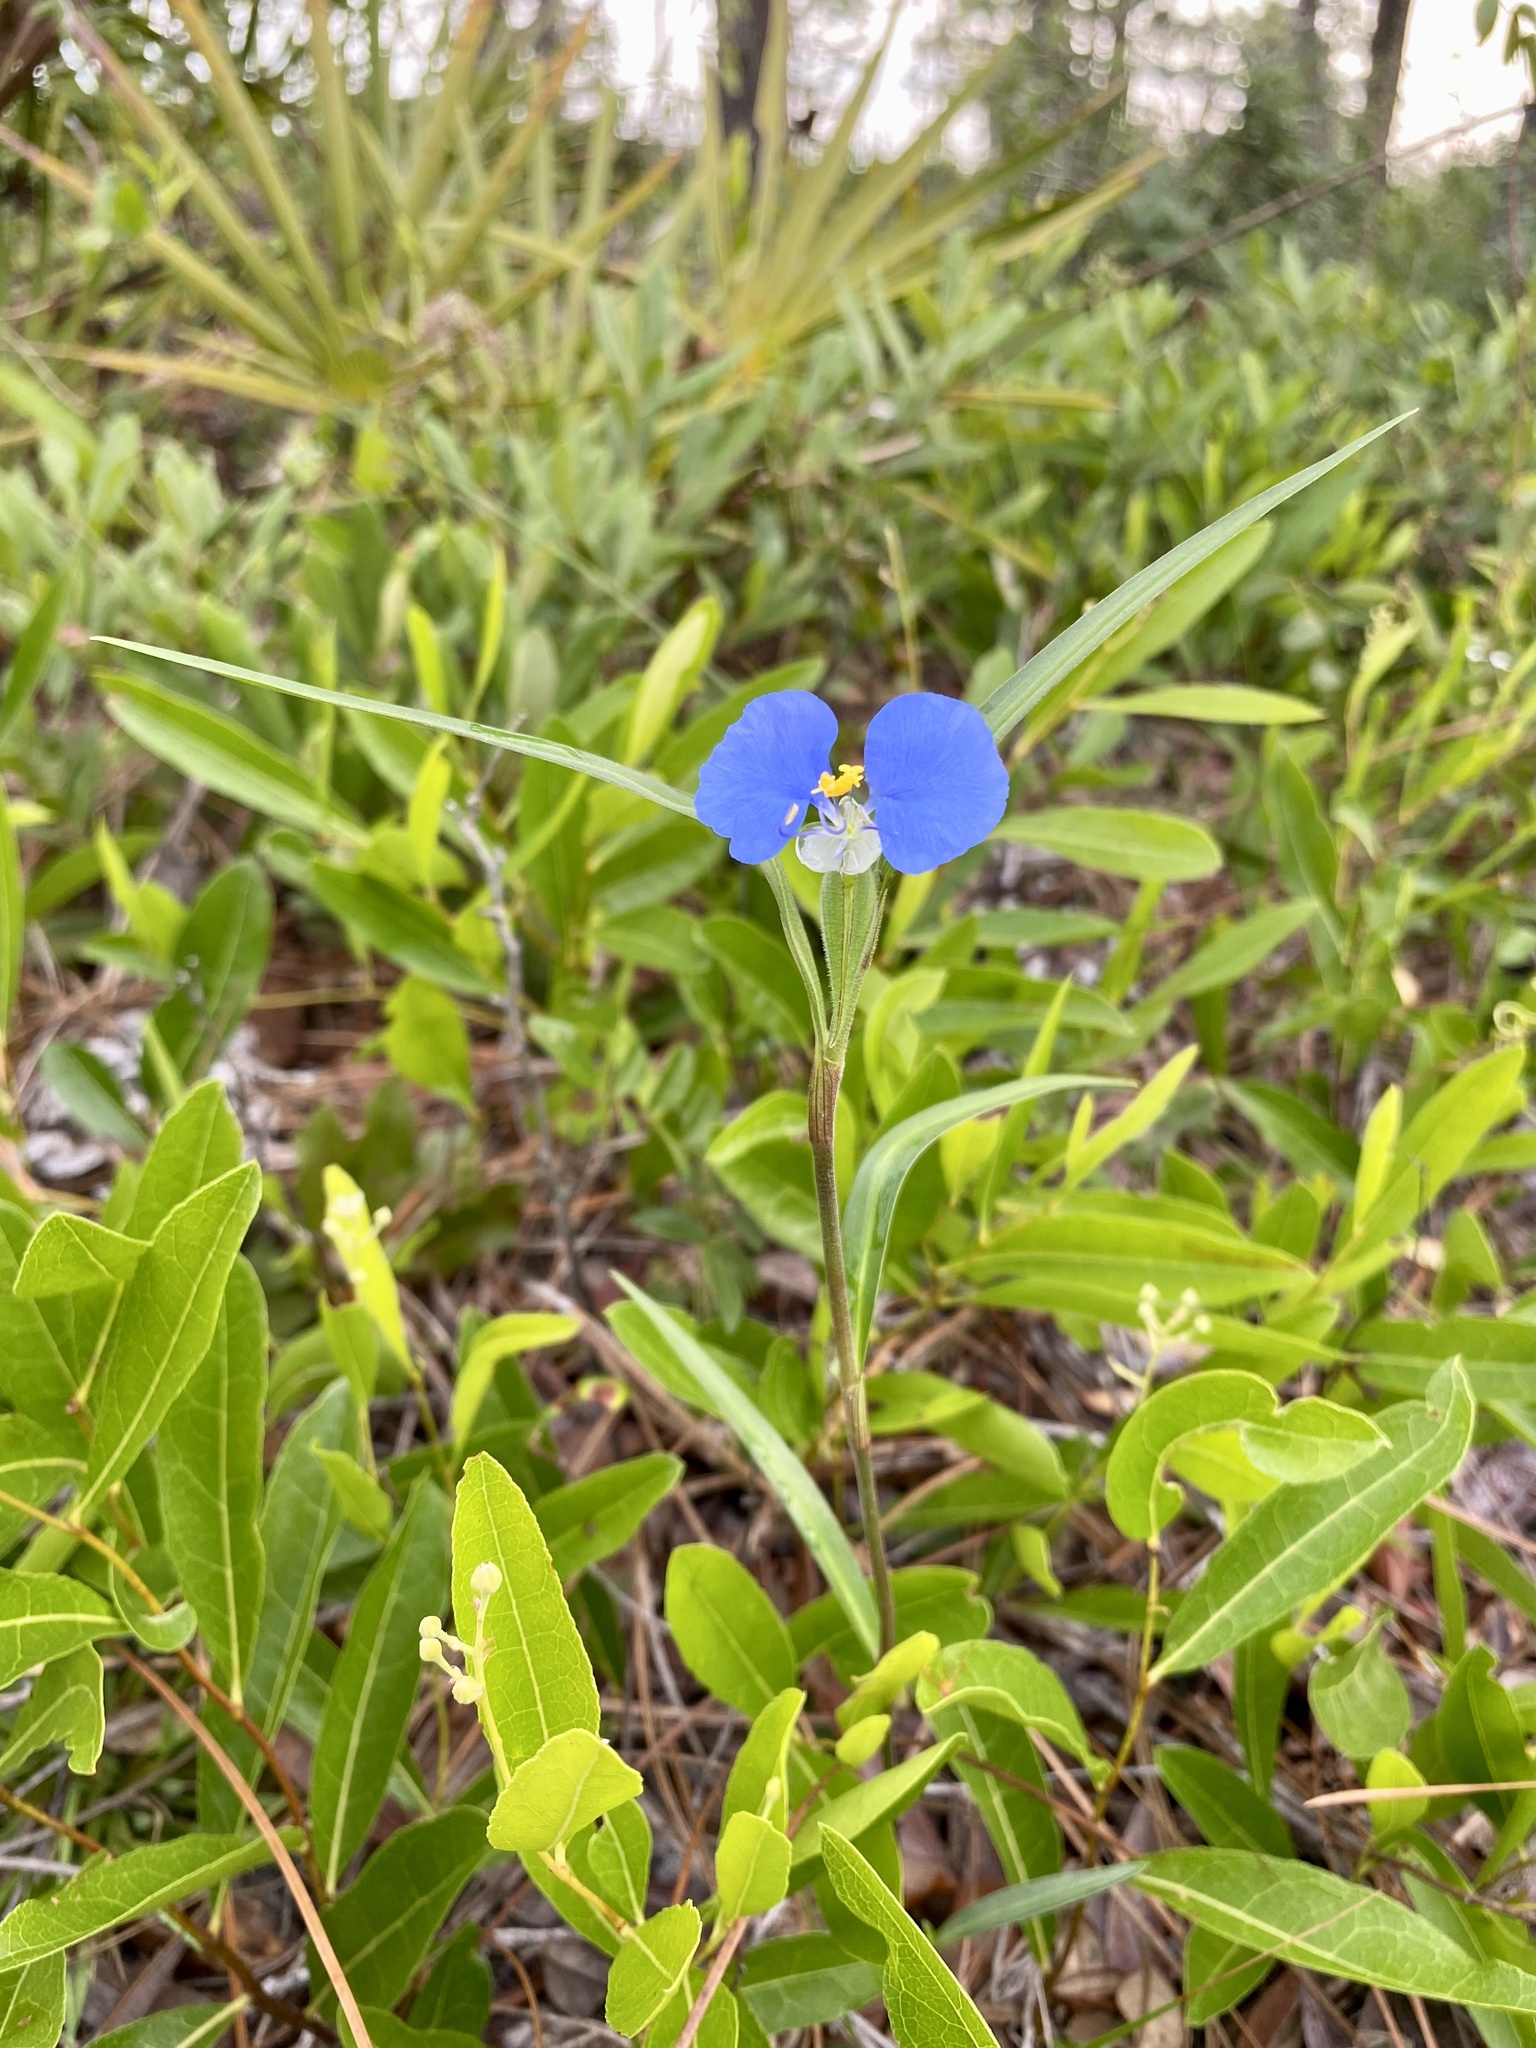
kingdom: Plantae
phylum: Tracheophyta
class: Liliopsida
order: Commelinales
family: Commelinaceae
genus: Commelina
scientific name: Commelina erecta
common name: Blousel blommetjie
